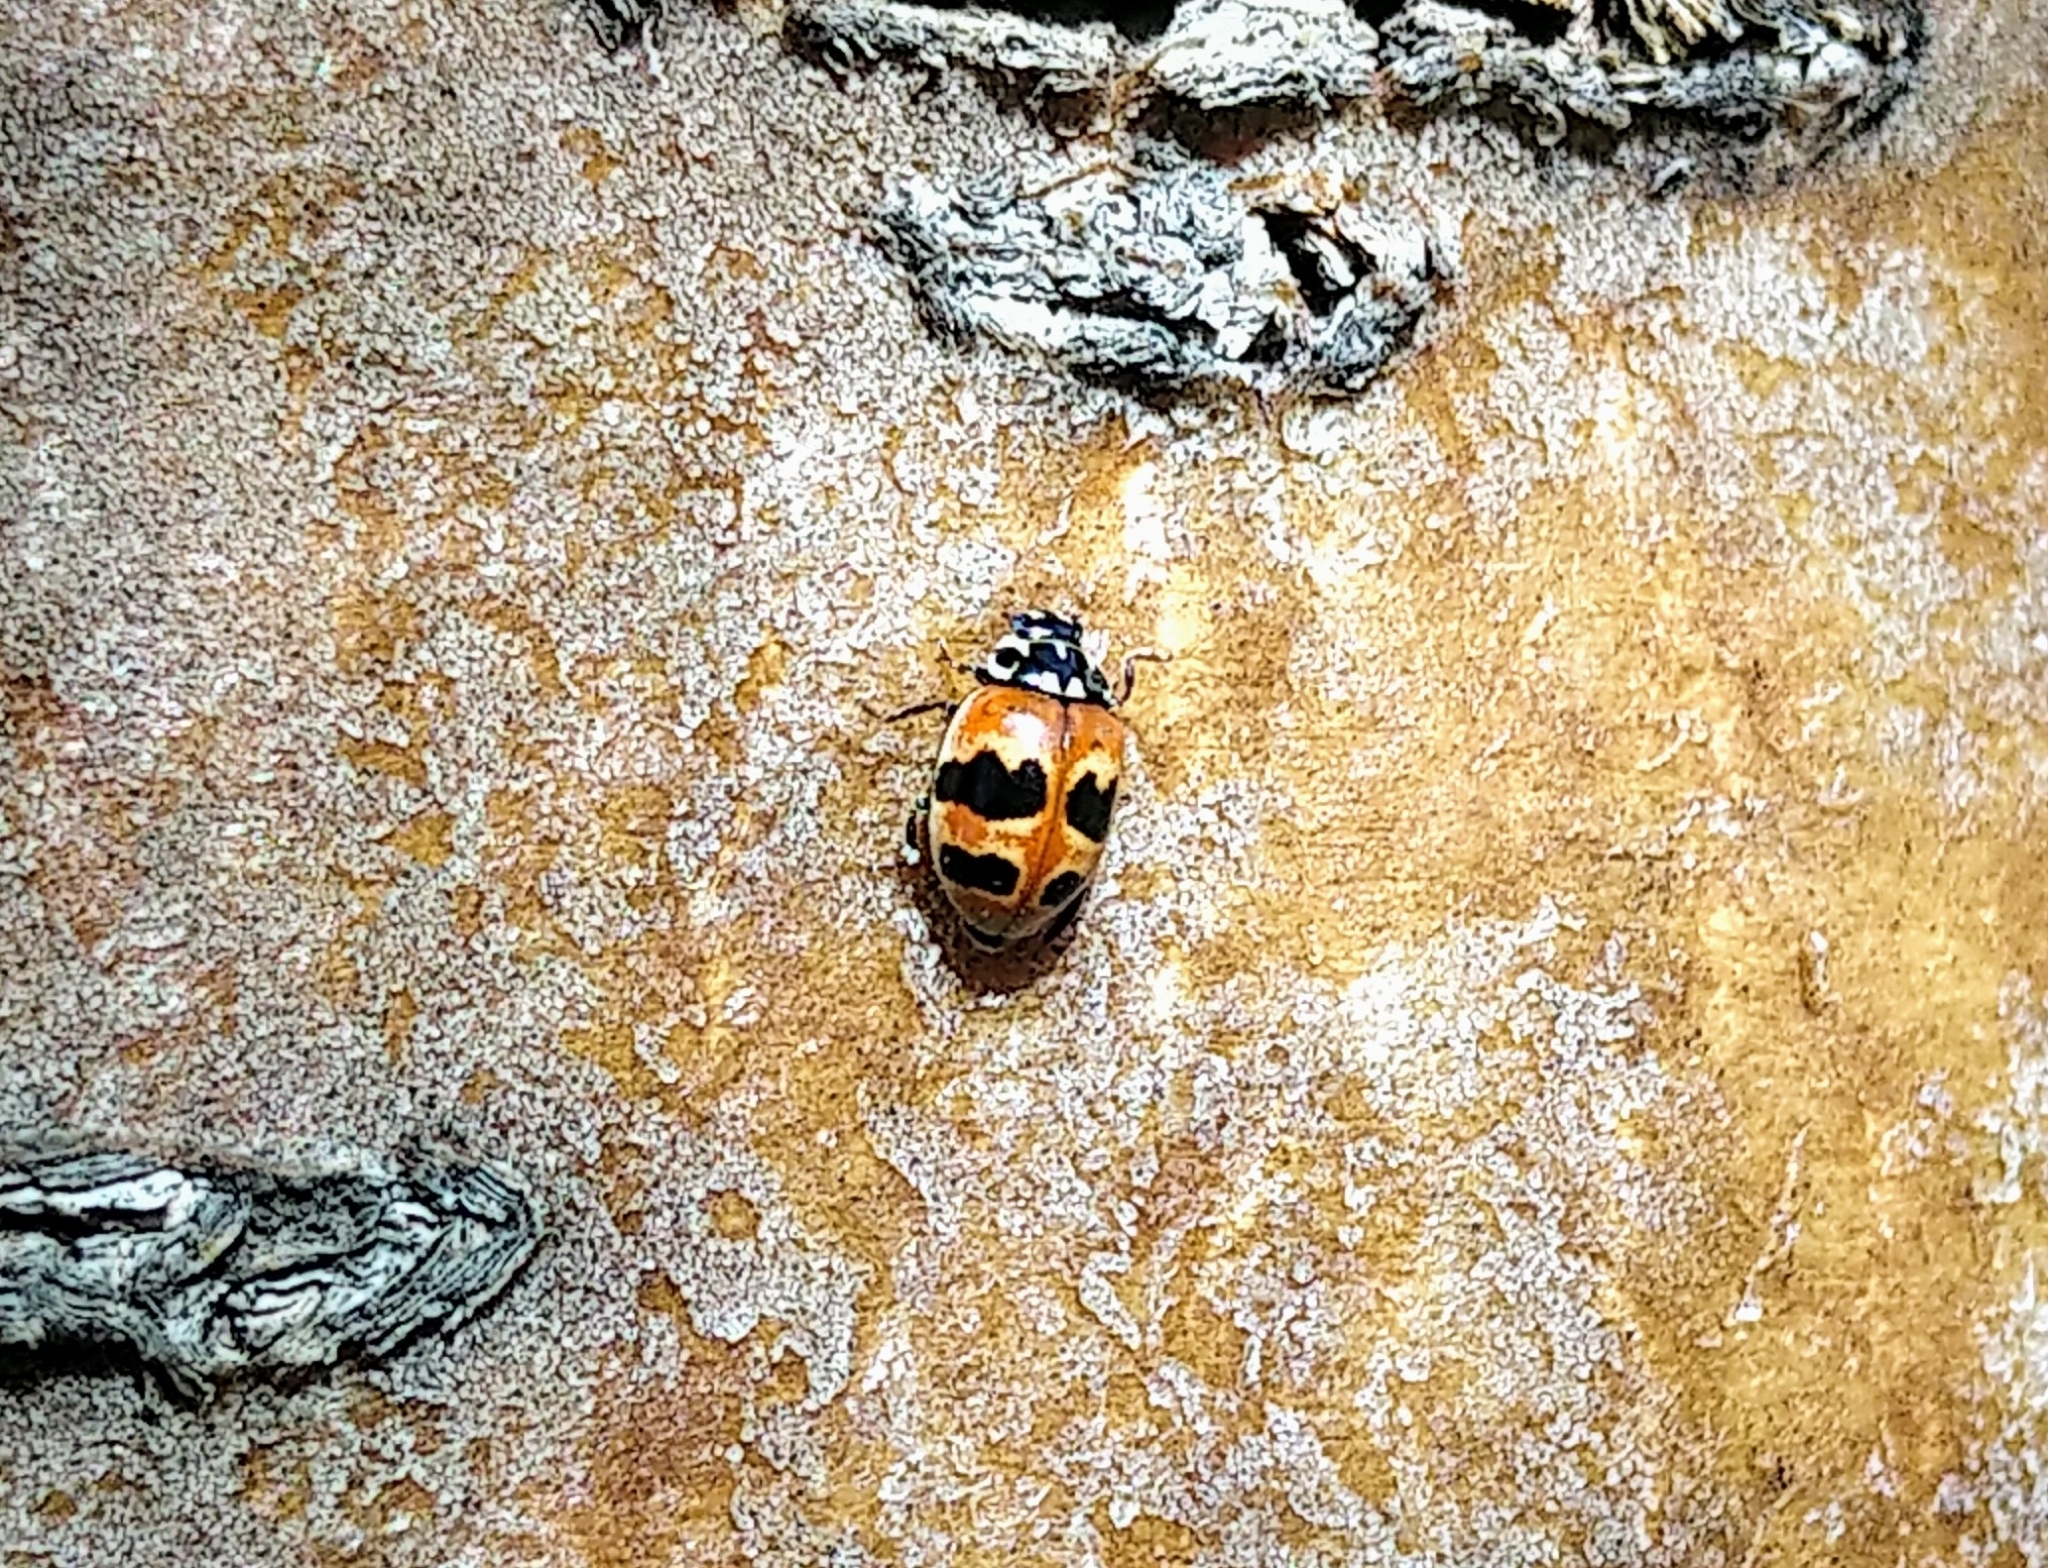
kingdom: Animalia
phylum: Arthropoda
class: Insecta
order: Coleoptera
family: Coccinellidae
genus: Adalia
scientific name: Adalia bipunctata
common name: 2-spot ladybird
